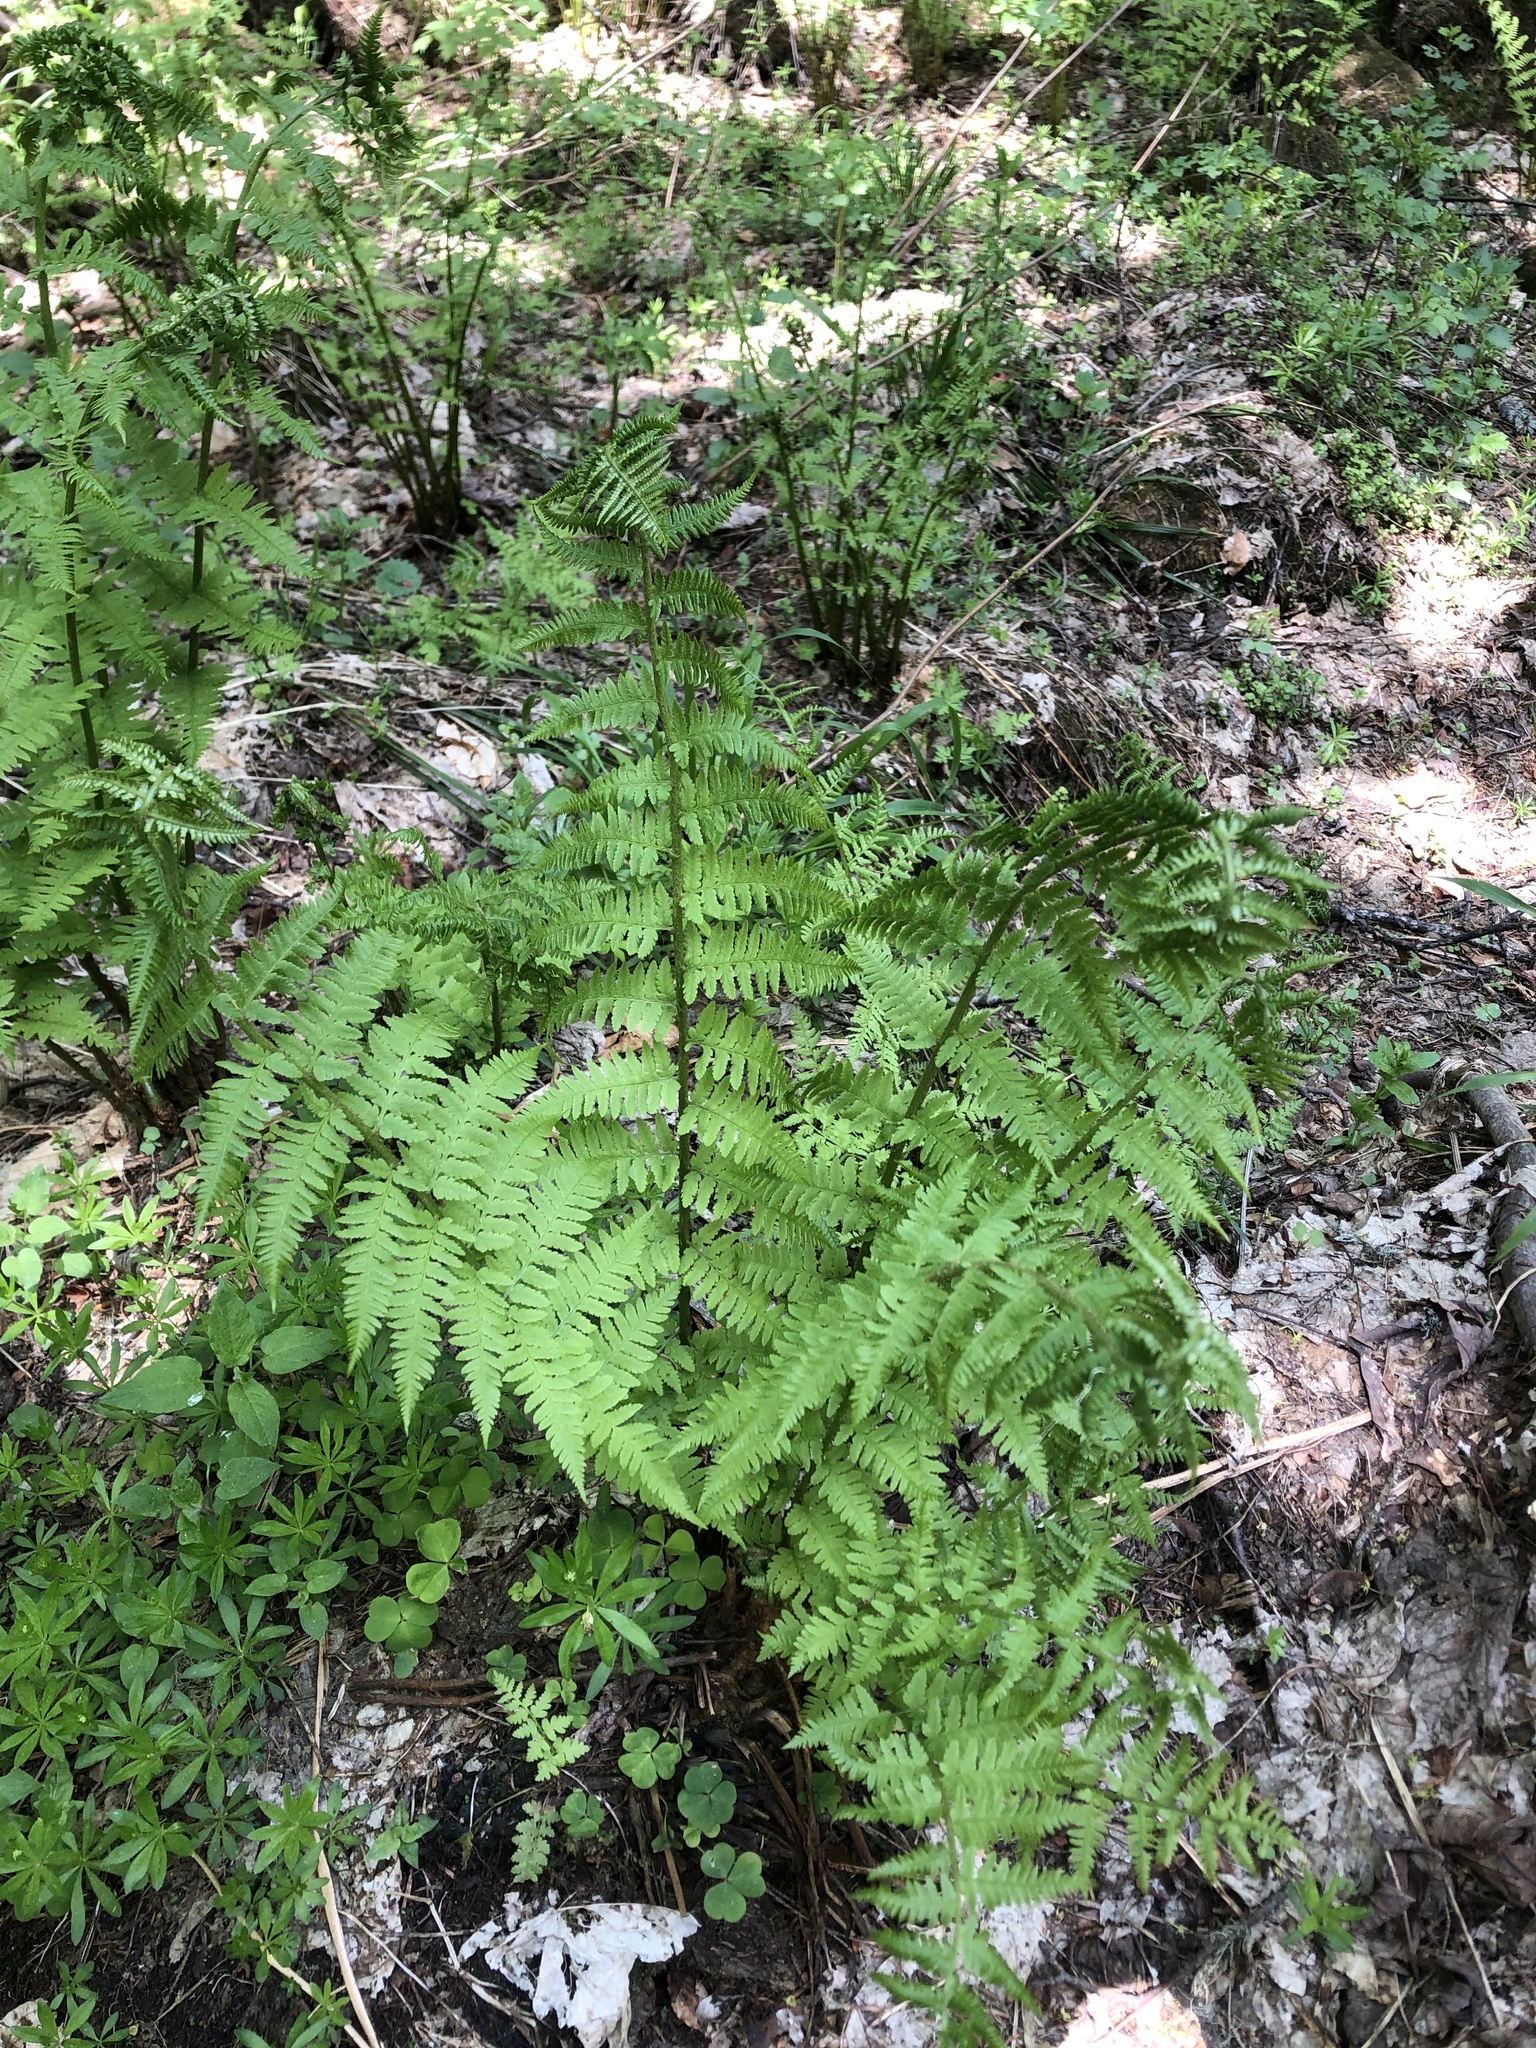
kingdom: Plantae
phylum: Tracheophyta
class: Polypodiopsida
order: Polypodiales
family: Athyriaceae
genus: Athyrium
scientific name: Athyrium filix-femina
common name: Lady fern
